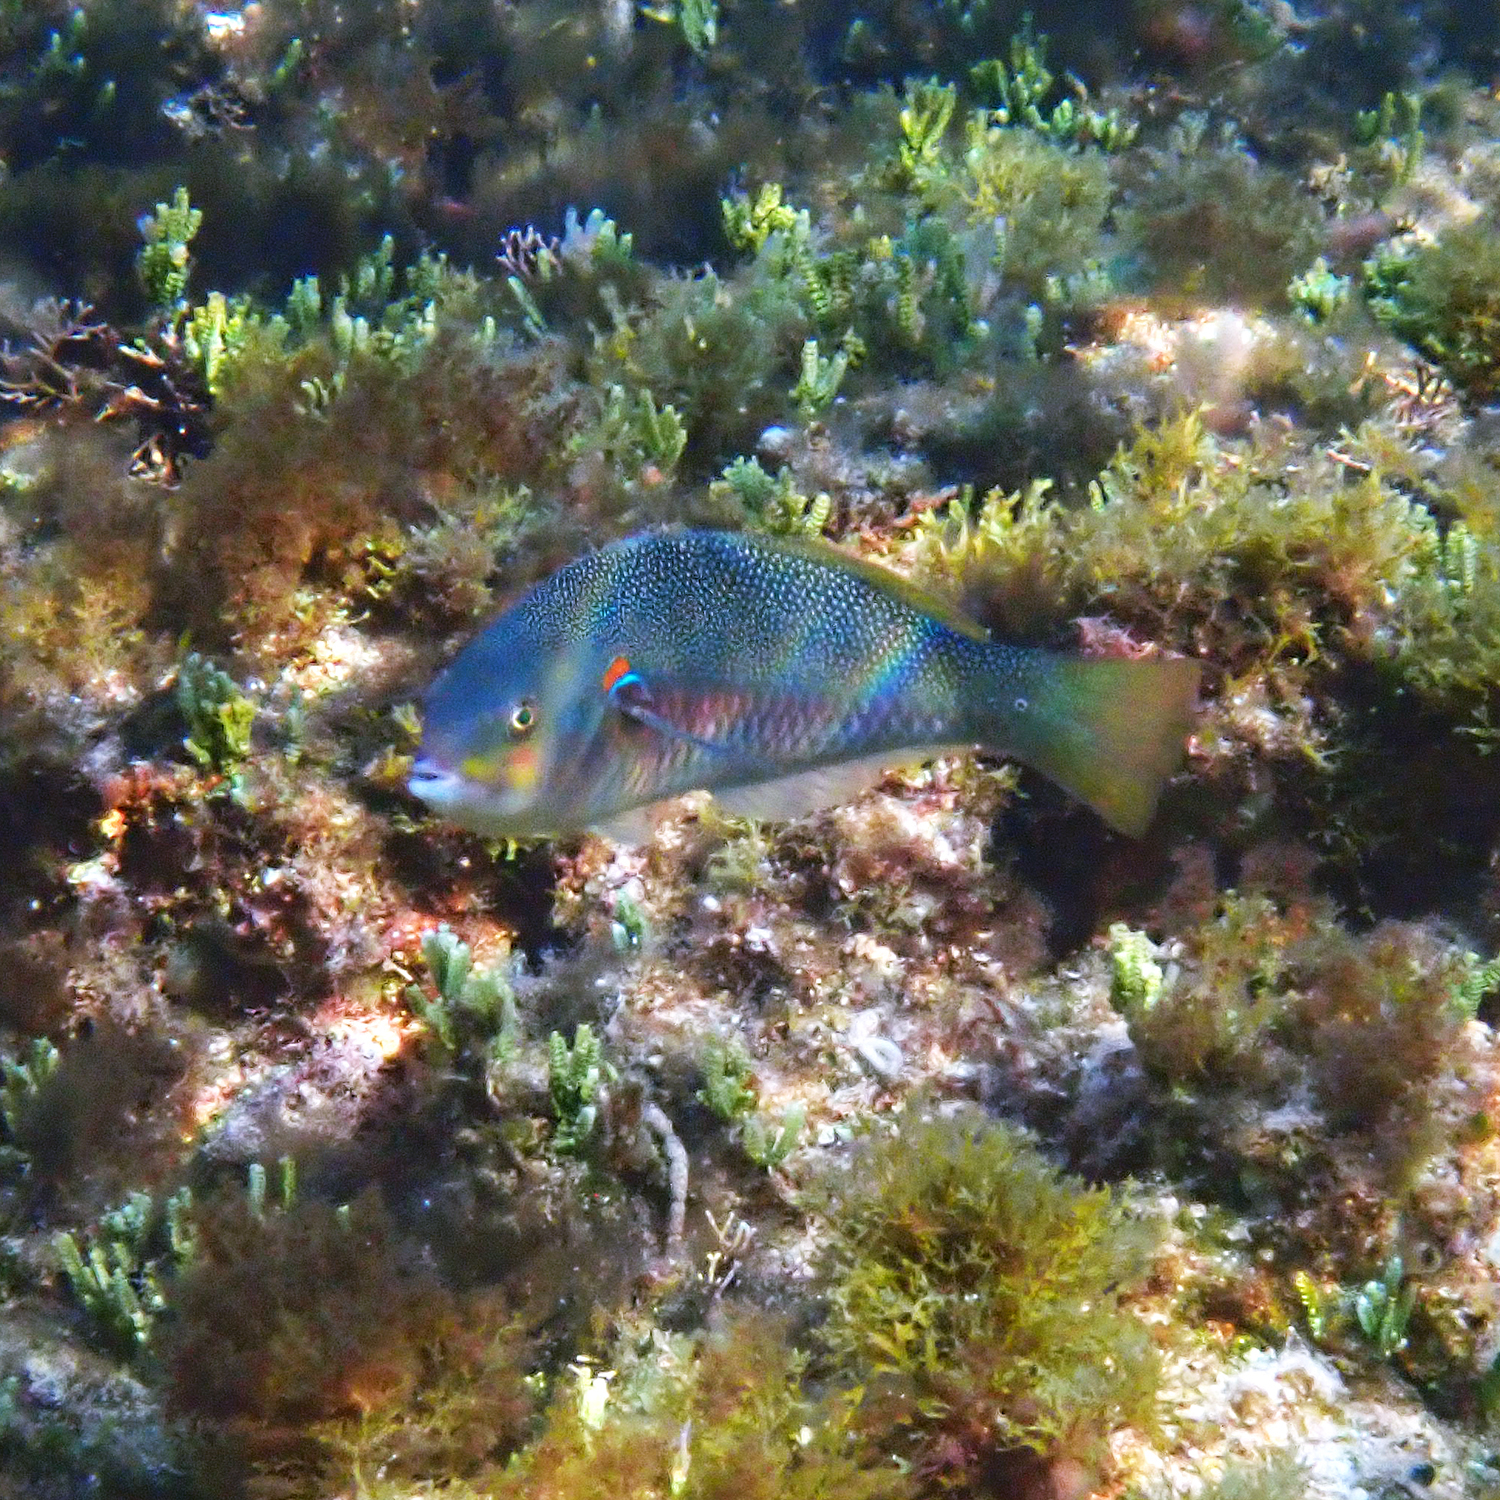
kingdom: Animalia
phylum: Chordata
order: Perciformes
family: Labridae
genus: Stethojulis
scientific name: Stethojulis bandanensis
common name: Red shoulder wrasse
